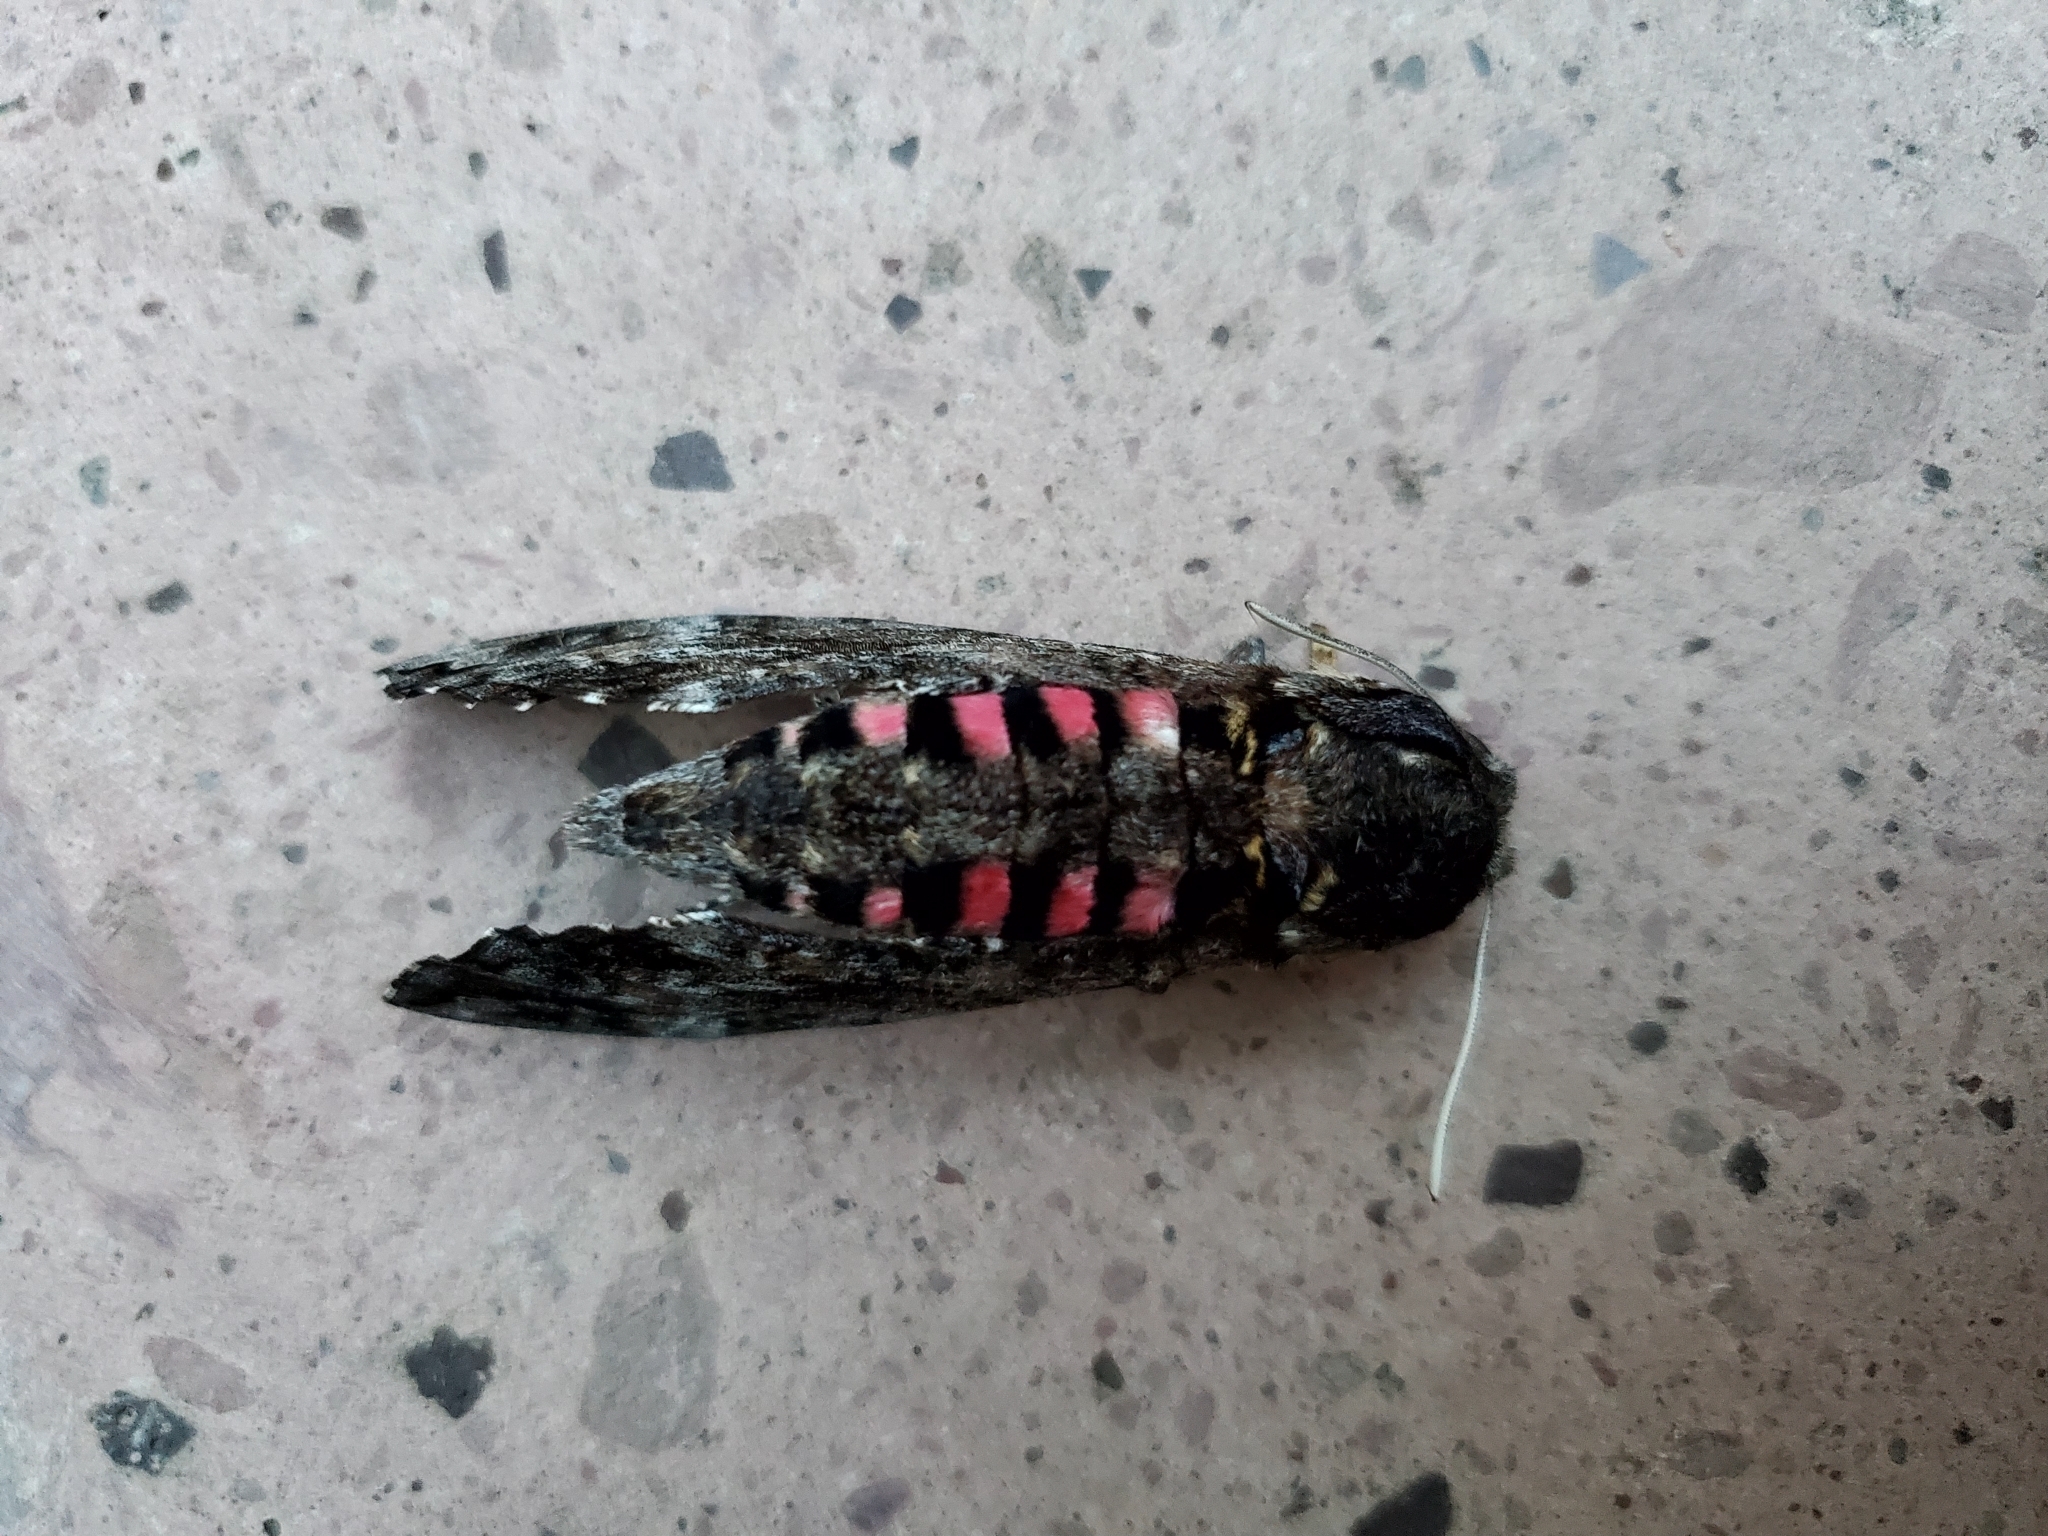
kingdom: Animalia
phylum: Arthropoda
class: Insecta
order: Lepidoptera
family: Sphingidae
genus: Agrius
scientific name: Agrius cingulata
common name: Pink-spotted hawkmoth
